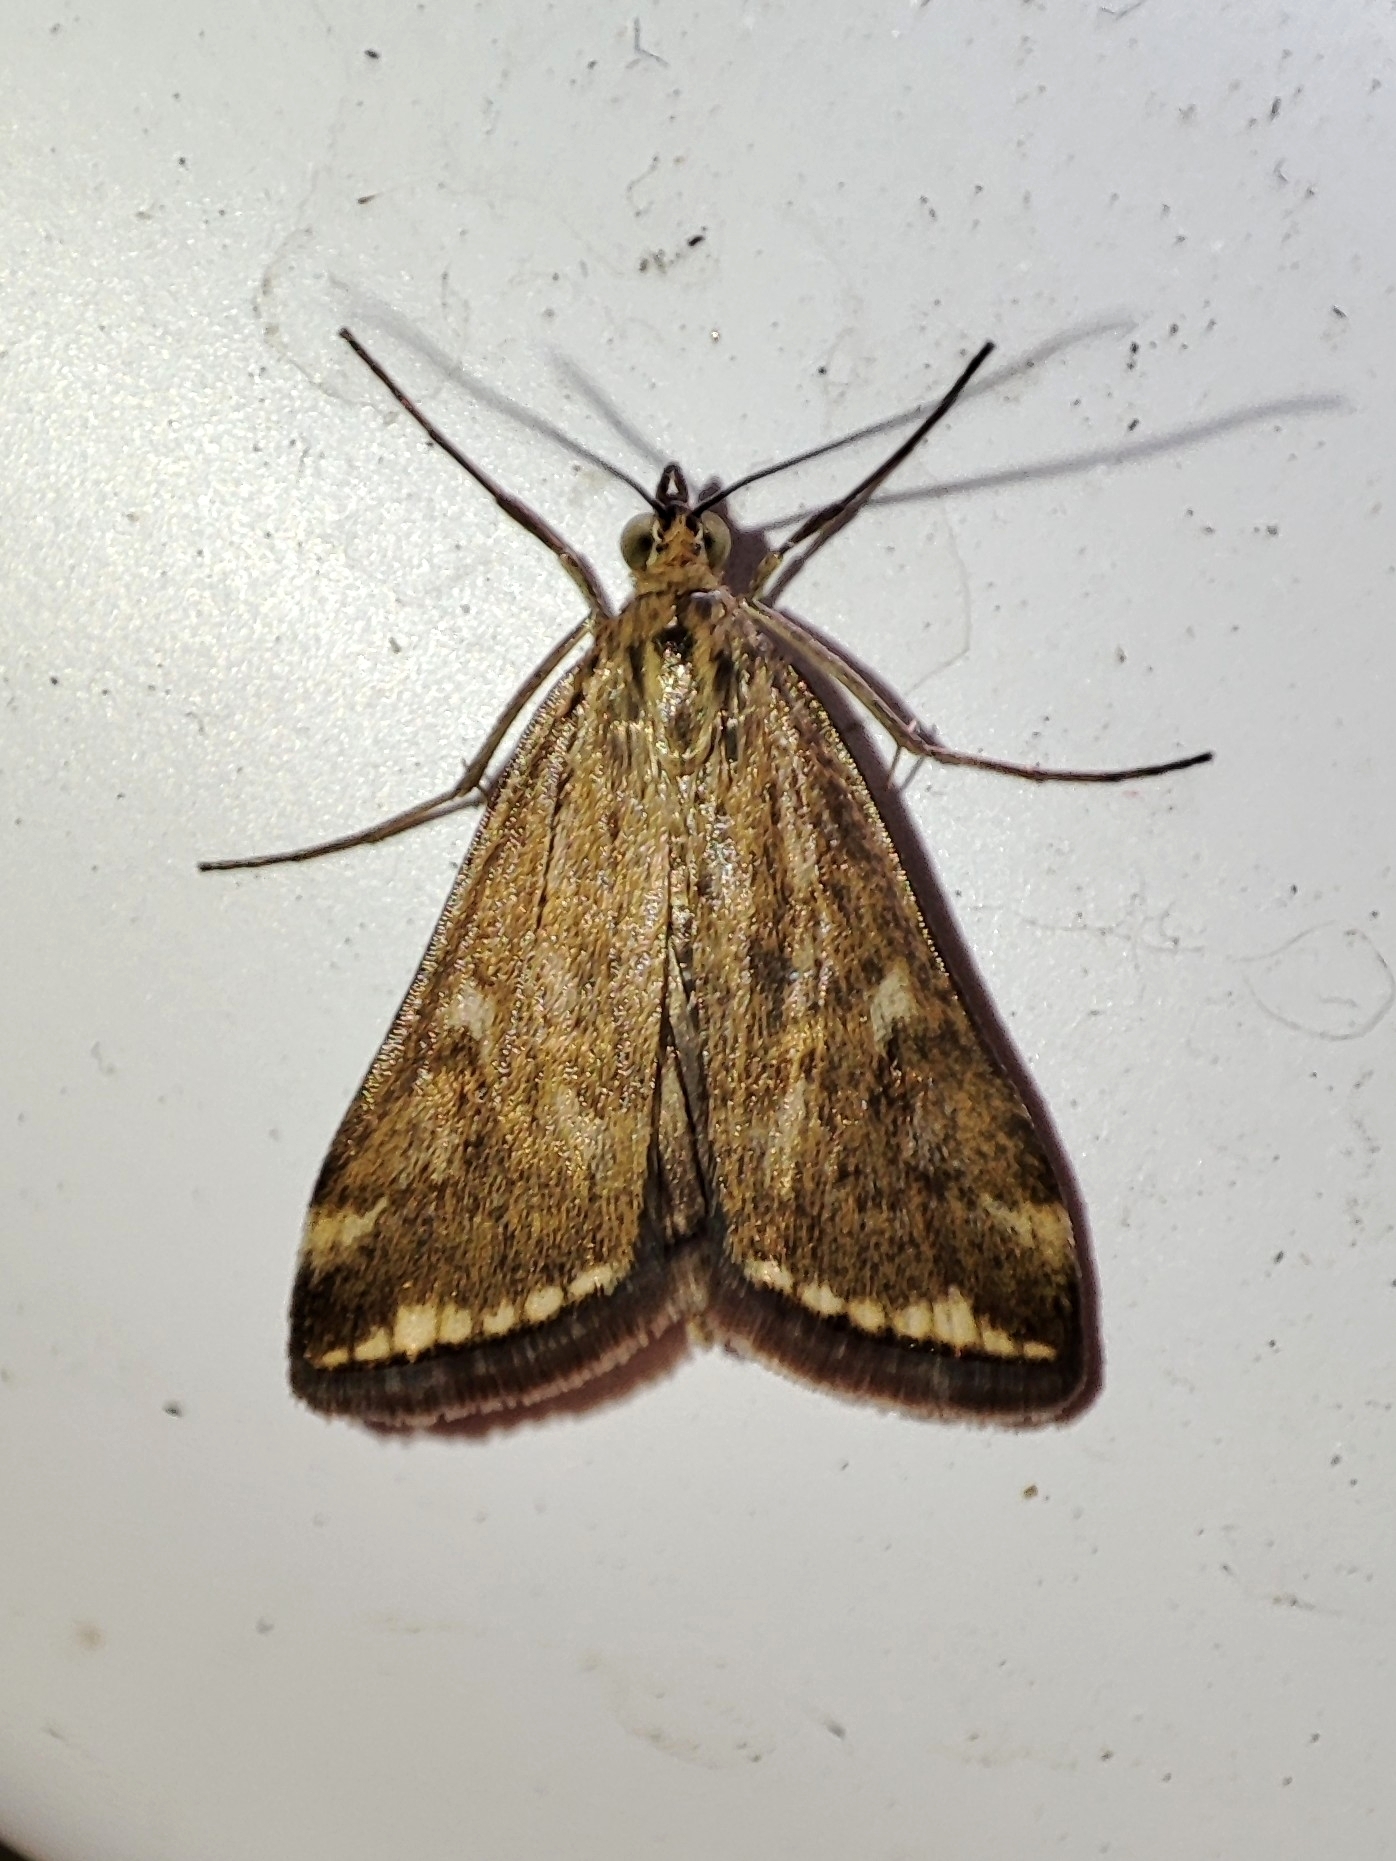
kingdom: Animalia
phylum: Arthropoda
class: Insecta
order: Lepidoptera
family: Crambidae
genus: Loxostege
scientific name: Loxostege sticticalis
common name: Crambid moth
